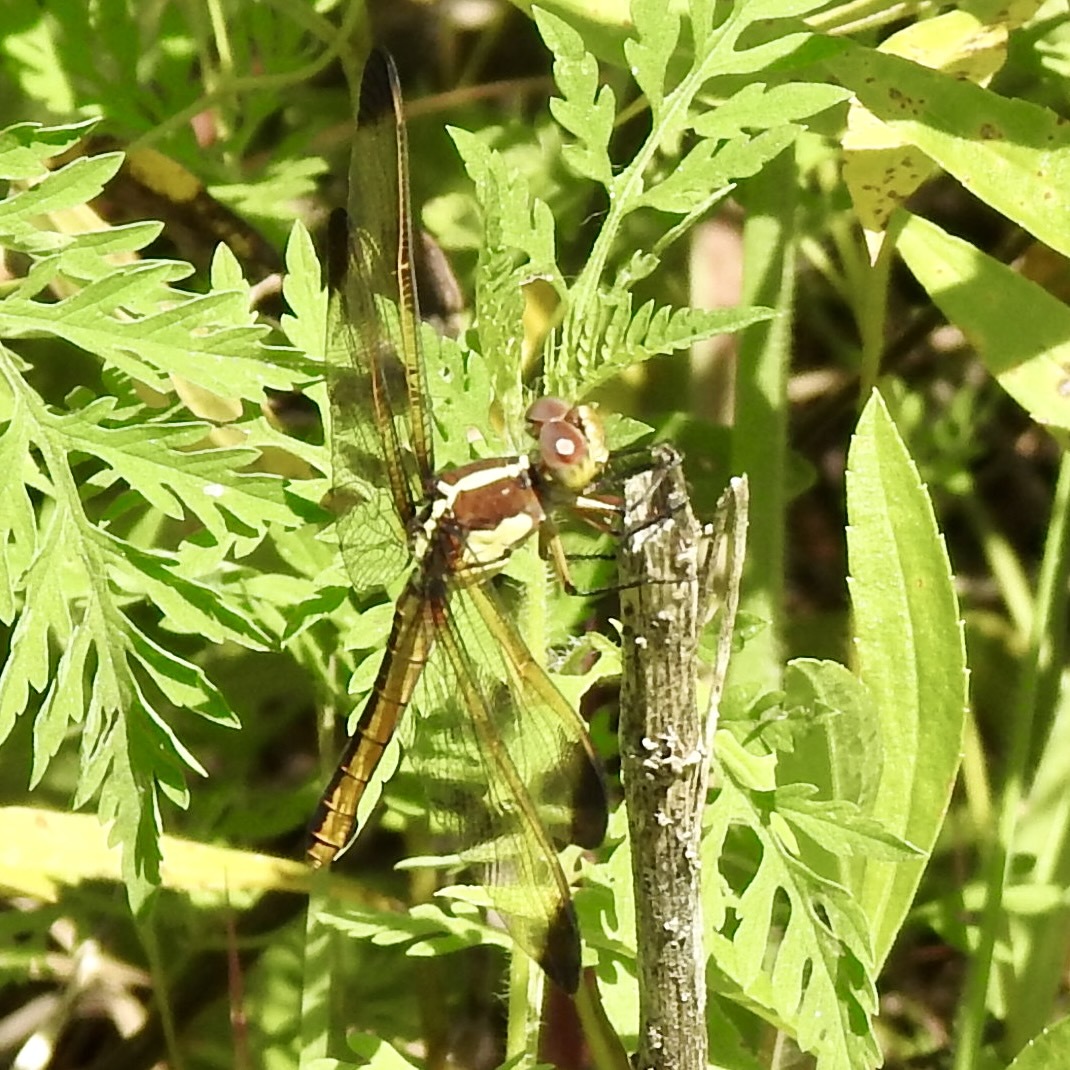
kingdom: Animalia
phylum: Arthropoda
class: Insecta
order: Odonata
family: Libellulidae
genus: Libellula
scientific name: Libellula flavida
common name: Yellow-sided skimmer
